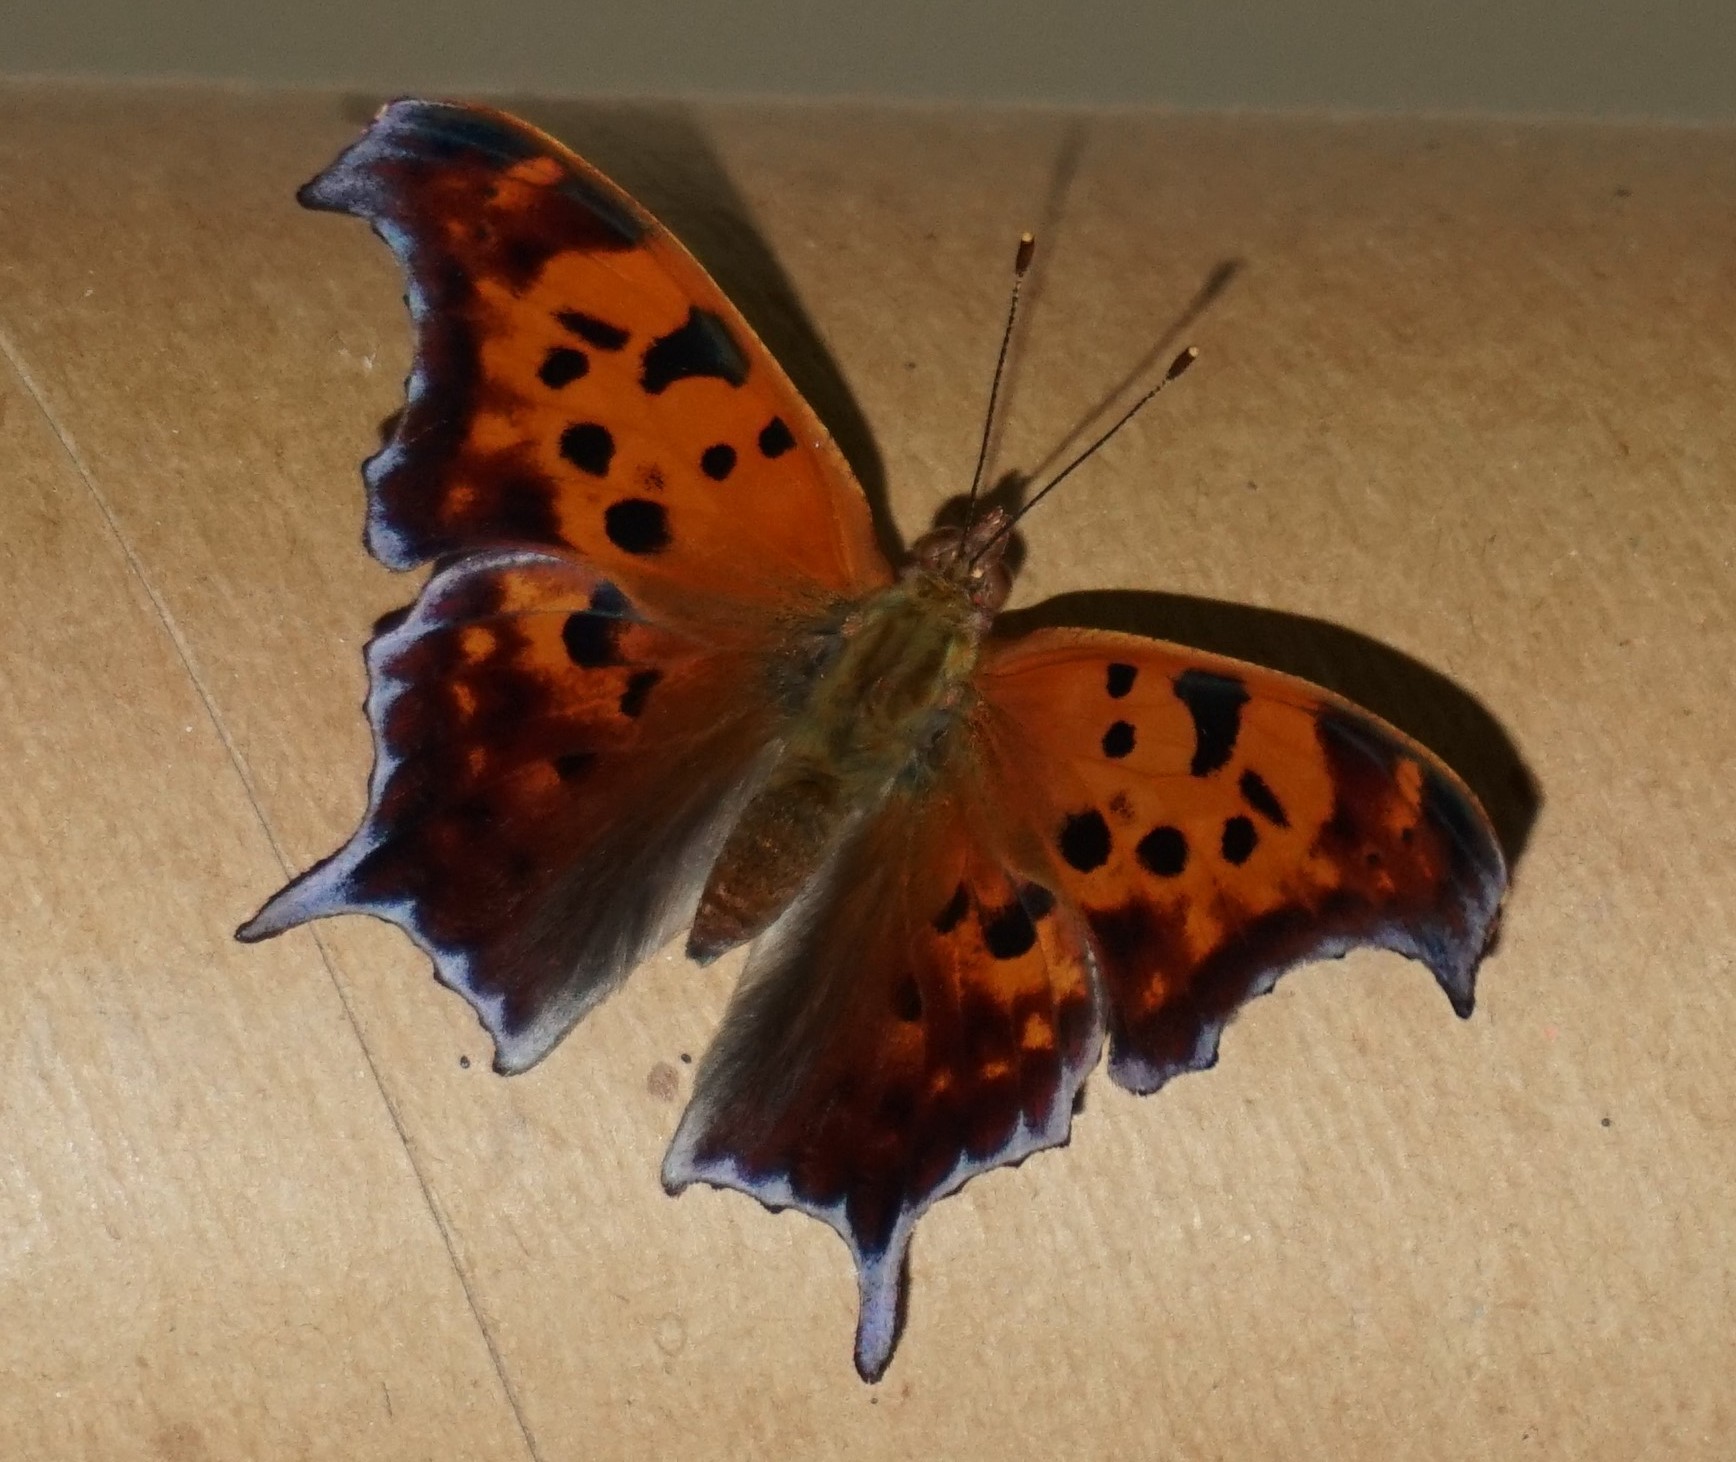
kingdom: Animalia
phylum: Arthropoda
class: Insecta
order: Lepidoptera
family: Nymphalidae
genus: Polygonia
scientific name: Polygonia interrogationis
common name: Question mark
